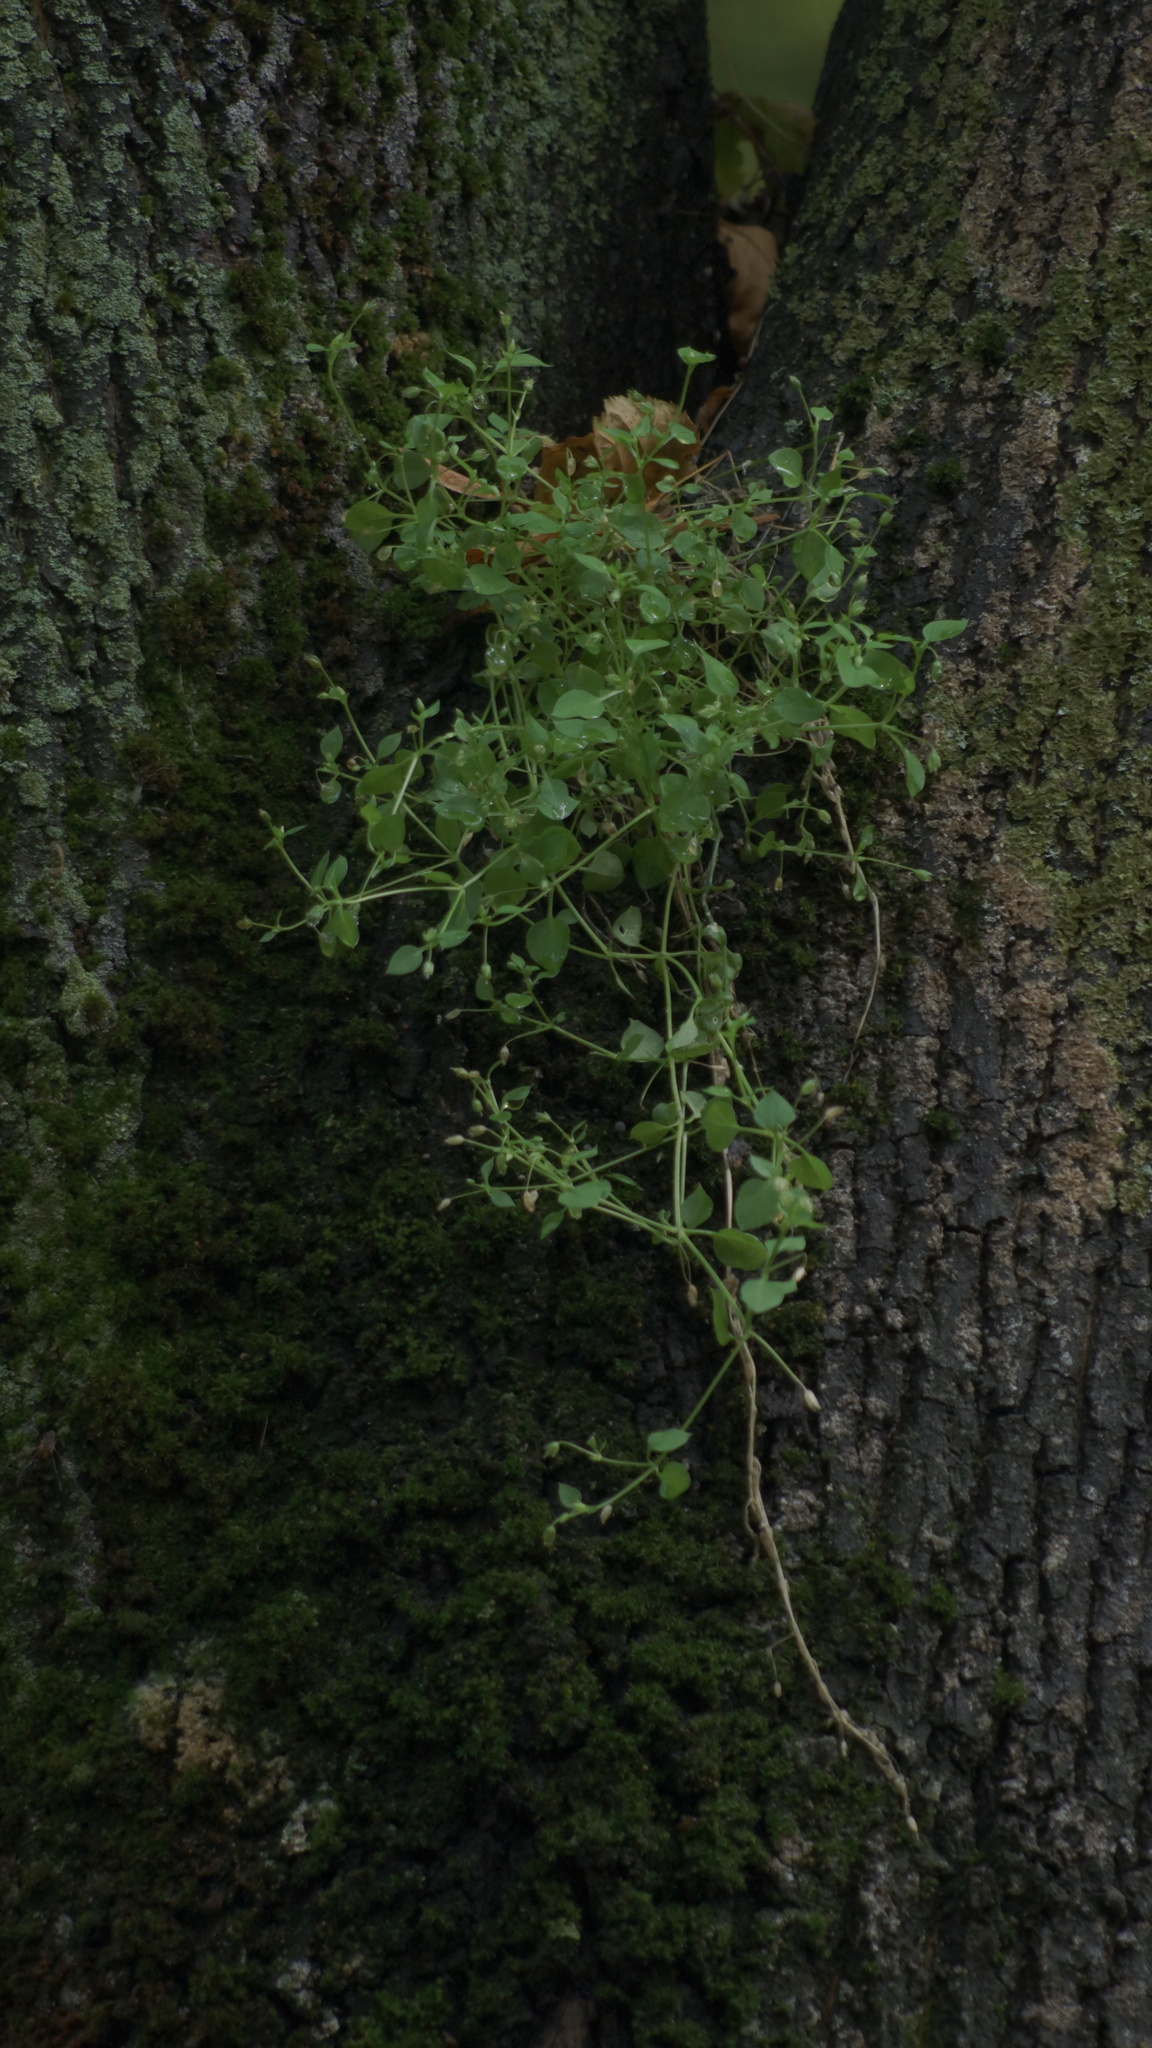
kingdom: Plantae
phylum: Tracheophyta
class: Magnoliopsida
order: Caryophyllales
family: Caryophyllaceae
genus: Stellaria
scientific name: Stellaria media
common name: Common chickweed
